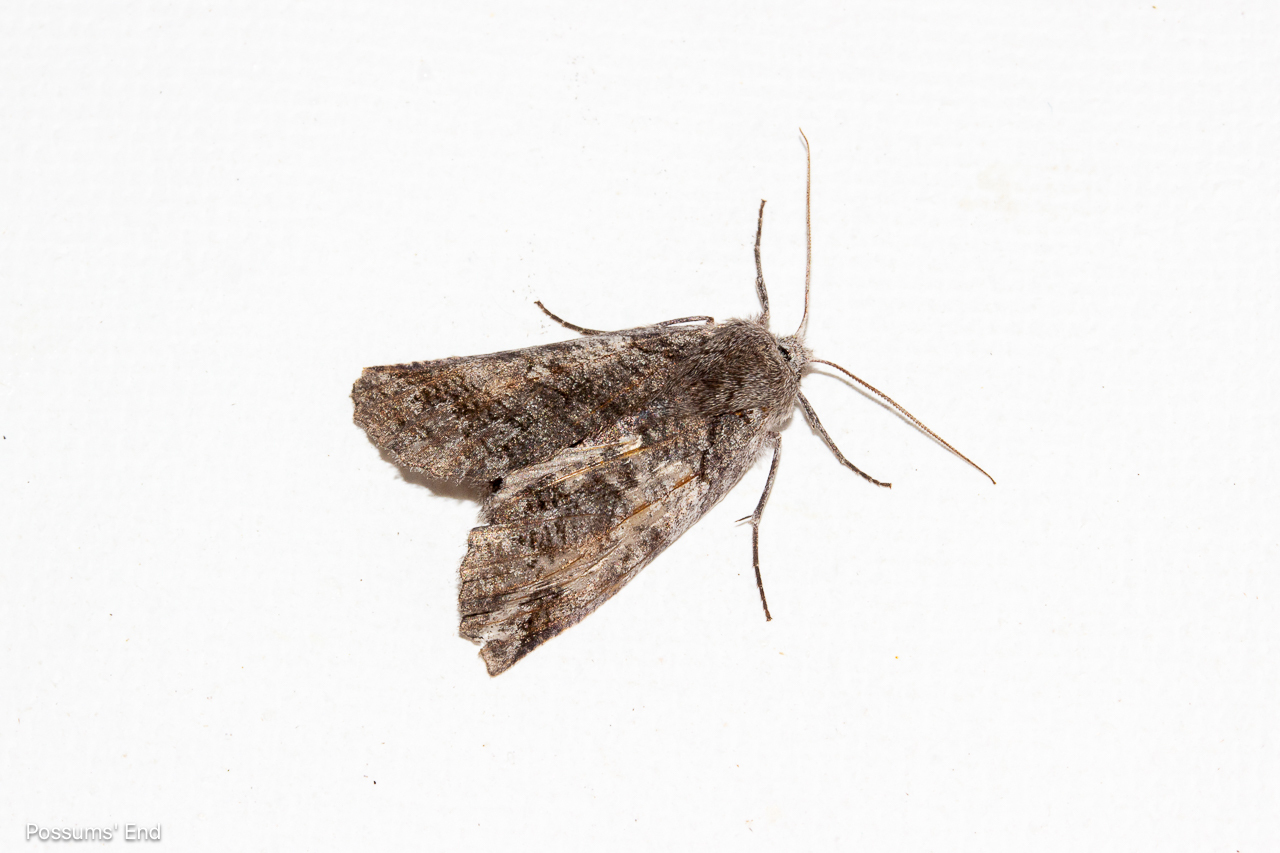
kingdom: Animalia
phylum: Arthropoda
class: Insecta
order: Lepidoptera
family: Geometridae
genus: Declana
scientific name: Declana
